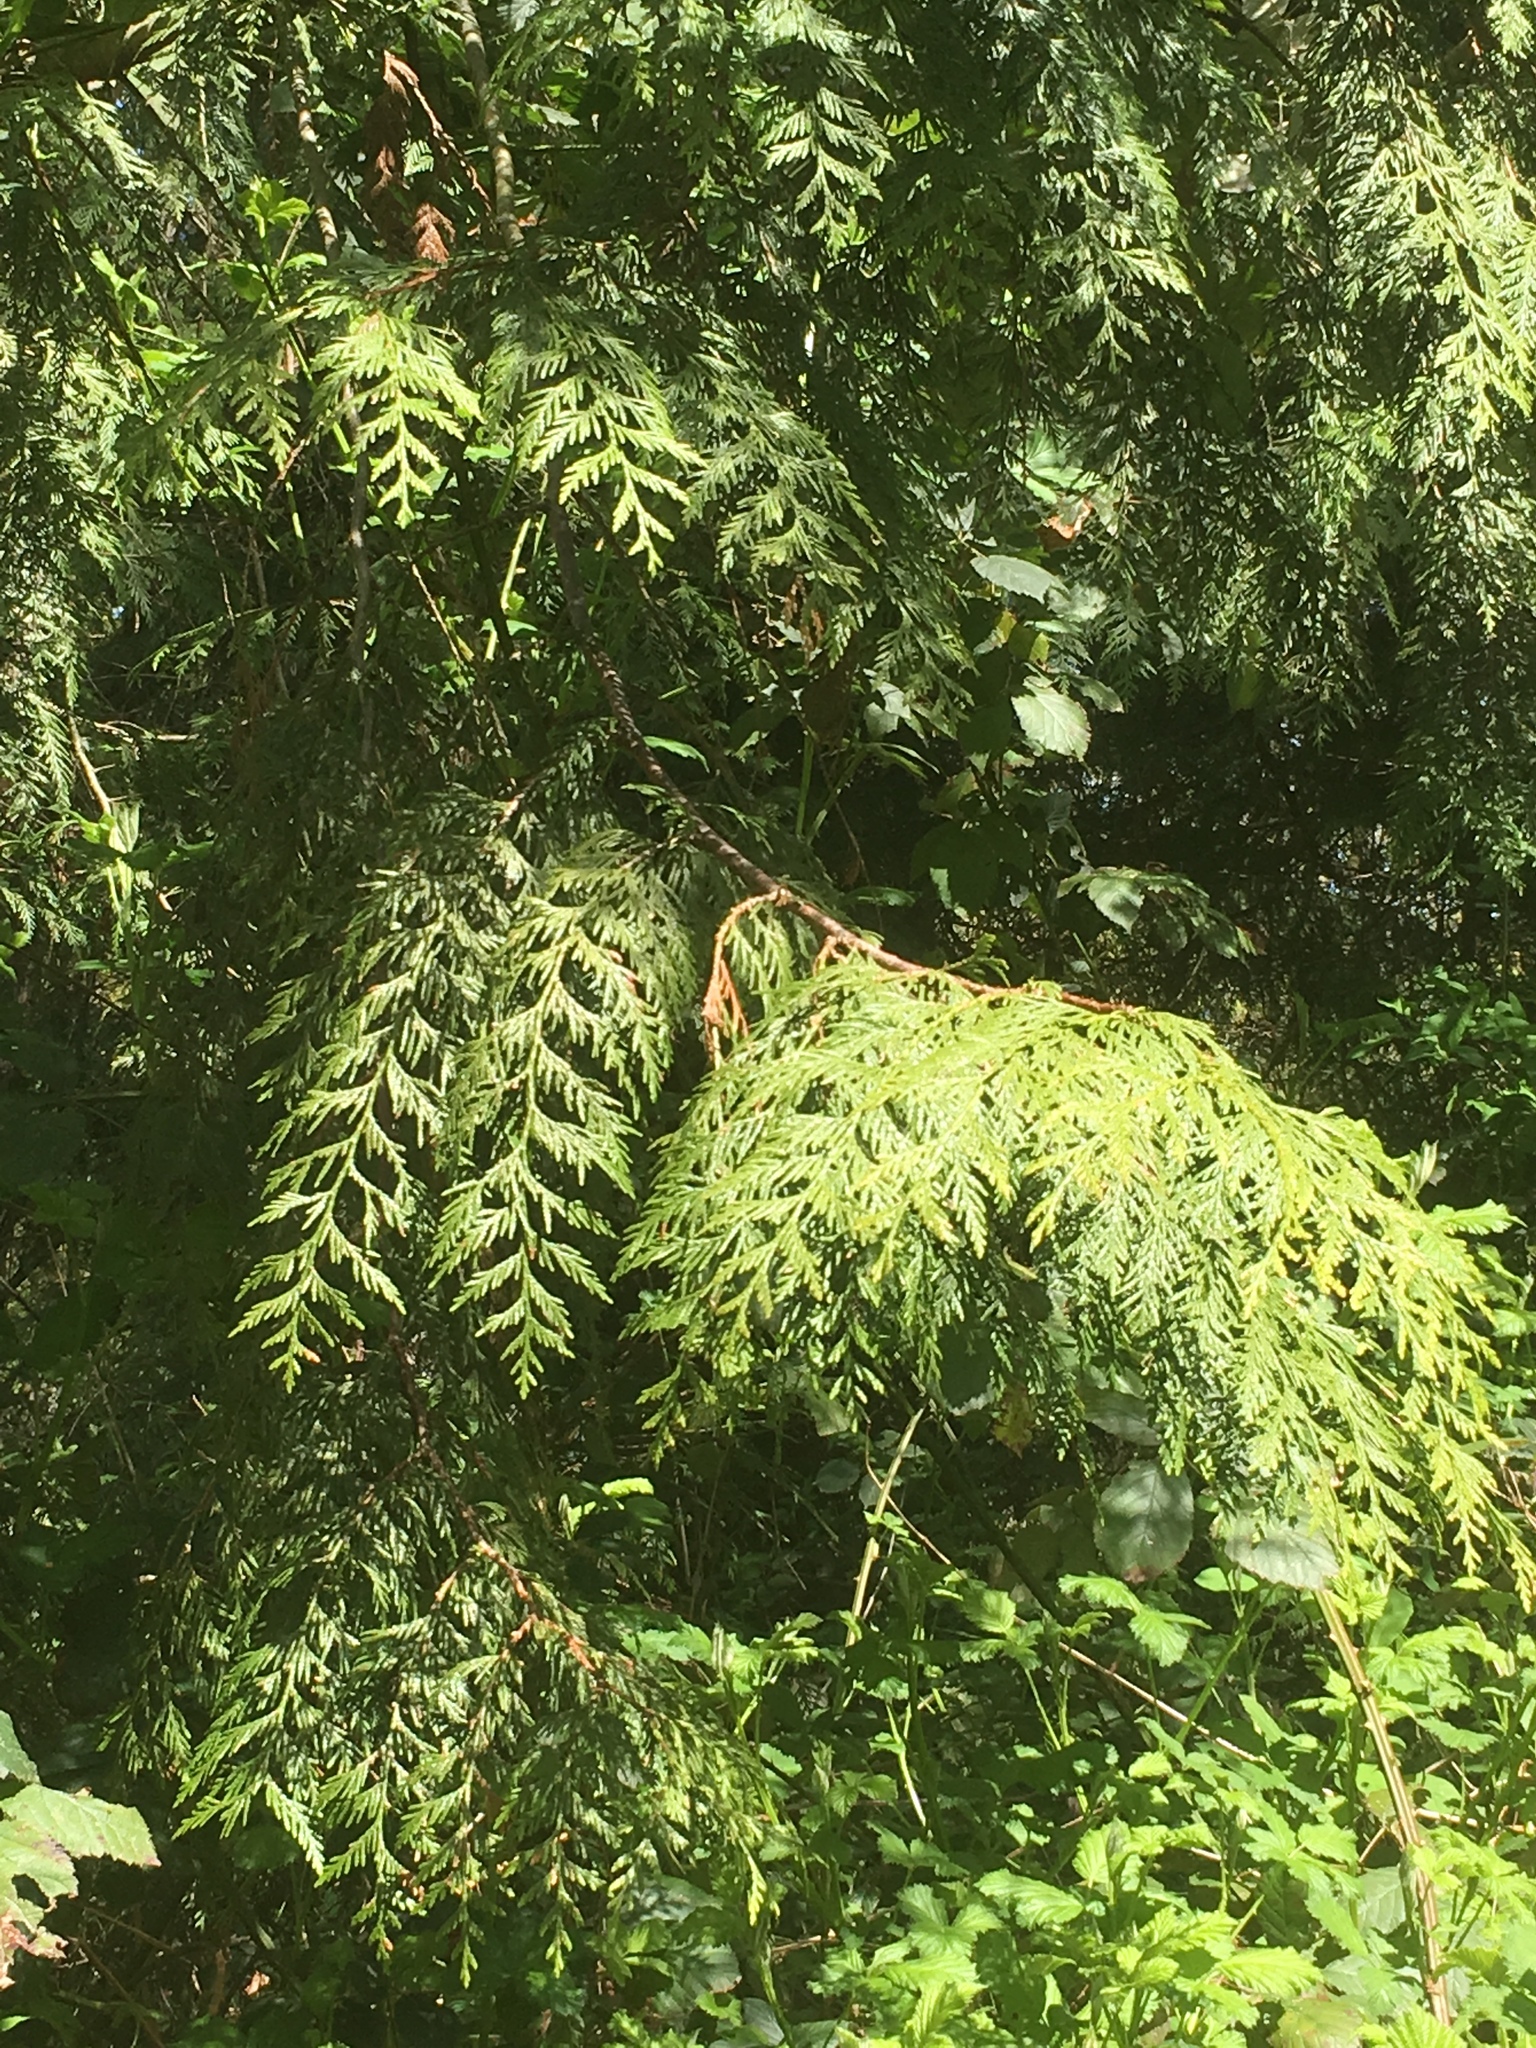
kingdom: Plantae
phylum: Tracheophyta
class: Pinopsida
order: Pinales
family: Cupressaceae
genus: Thuja
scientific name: Thuja plicata
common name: Western red-cedar
